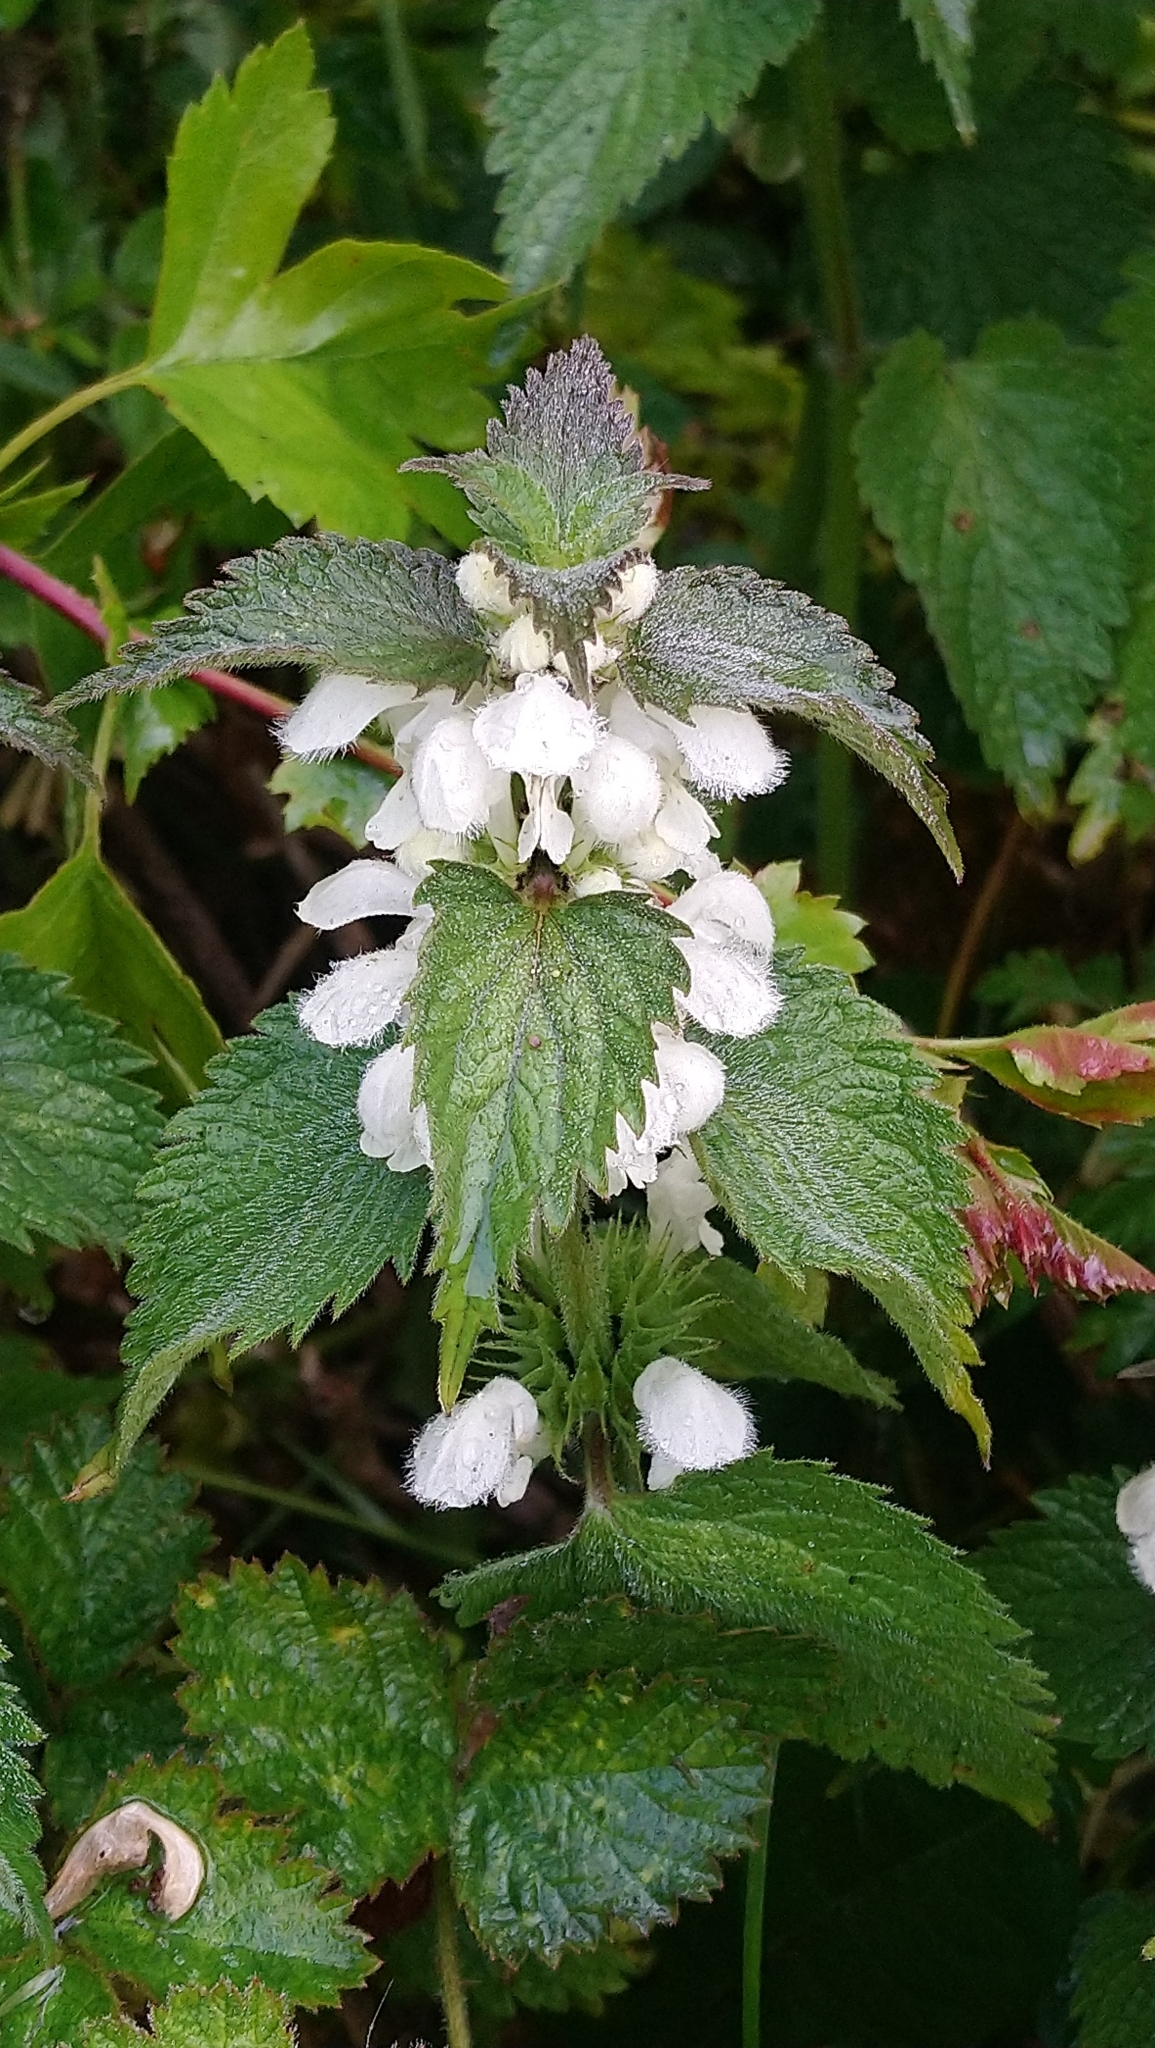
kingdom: Plantae
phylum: Tracheophyta
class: Magnoliopsida
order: Lamiales
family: Lamiaceae
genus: Lamium
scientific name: Lamium album
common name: White dead-nettle
